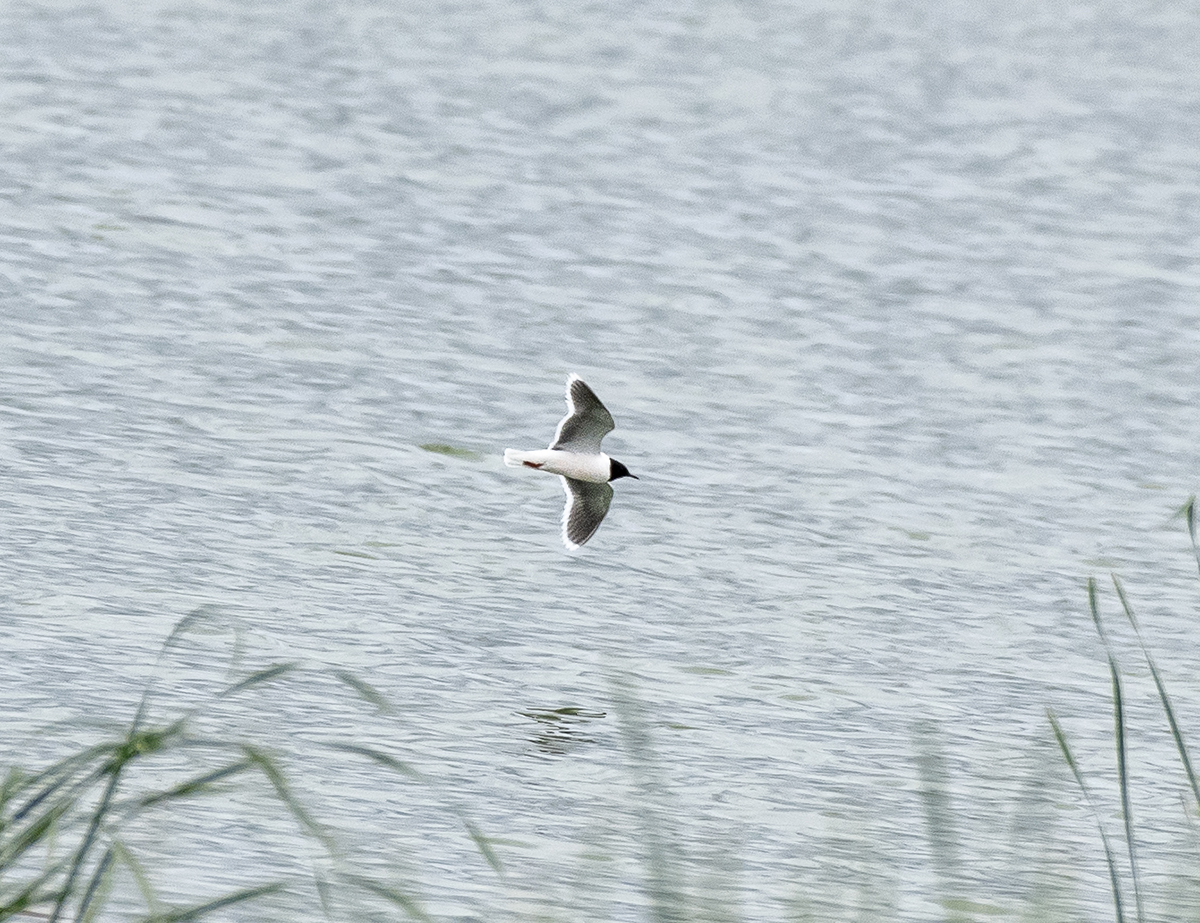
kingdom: Animalia
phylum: Chordata
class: Aves
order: Charadriiformes
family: Laridae
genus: Hydrocoloeus
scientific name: Hydrocoloeus minutus
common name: Little gull
